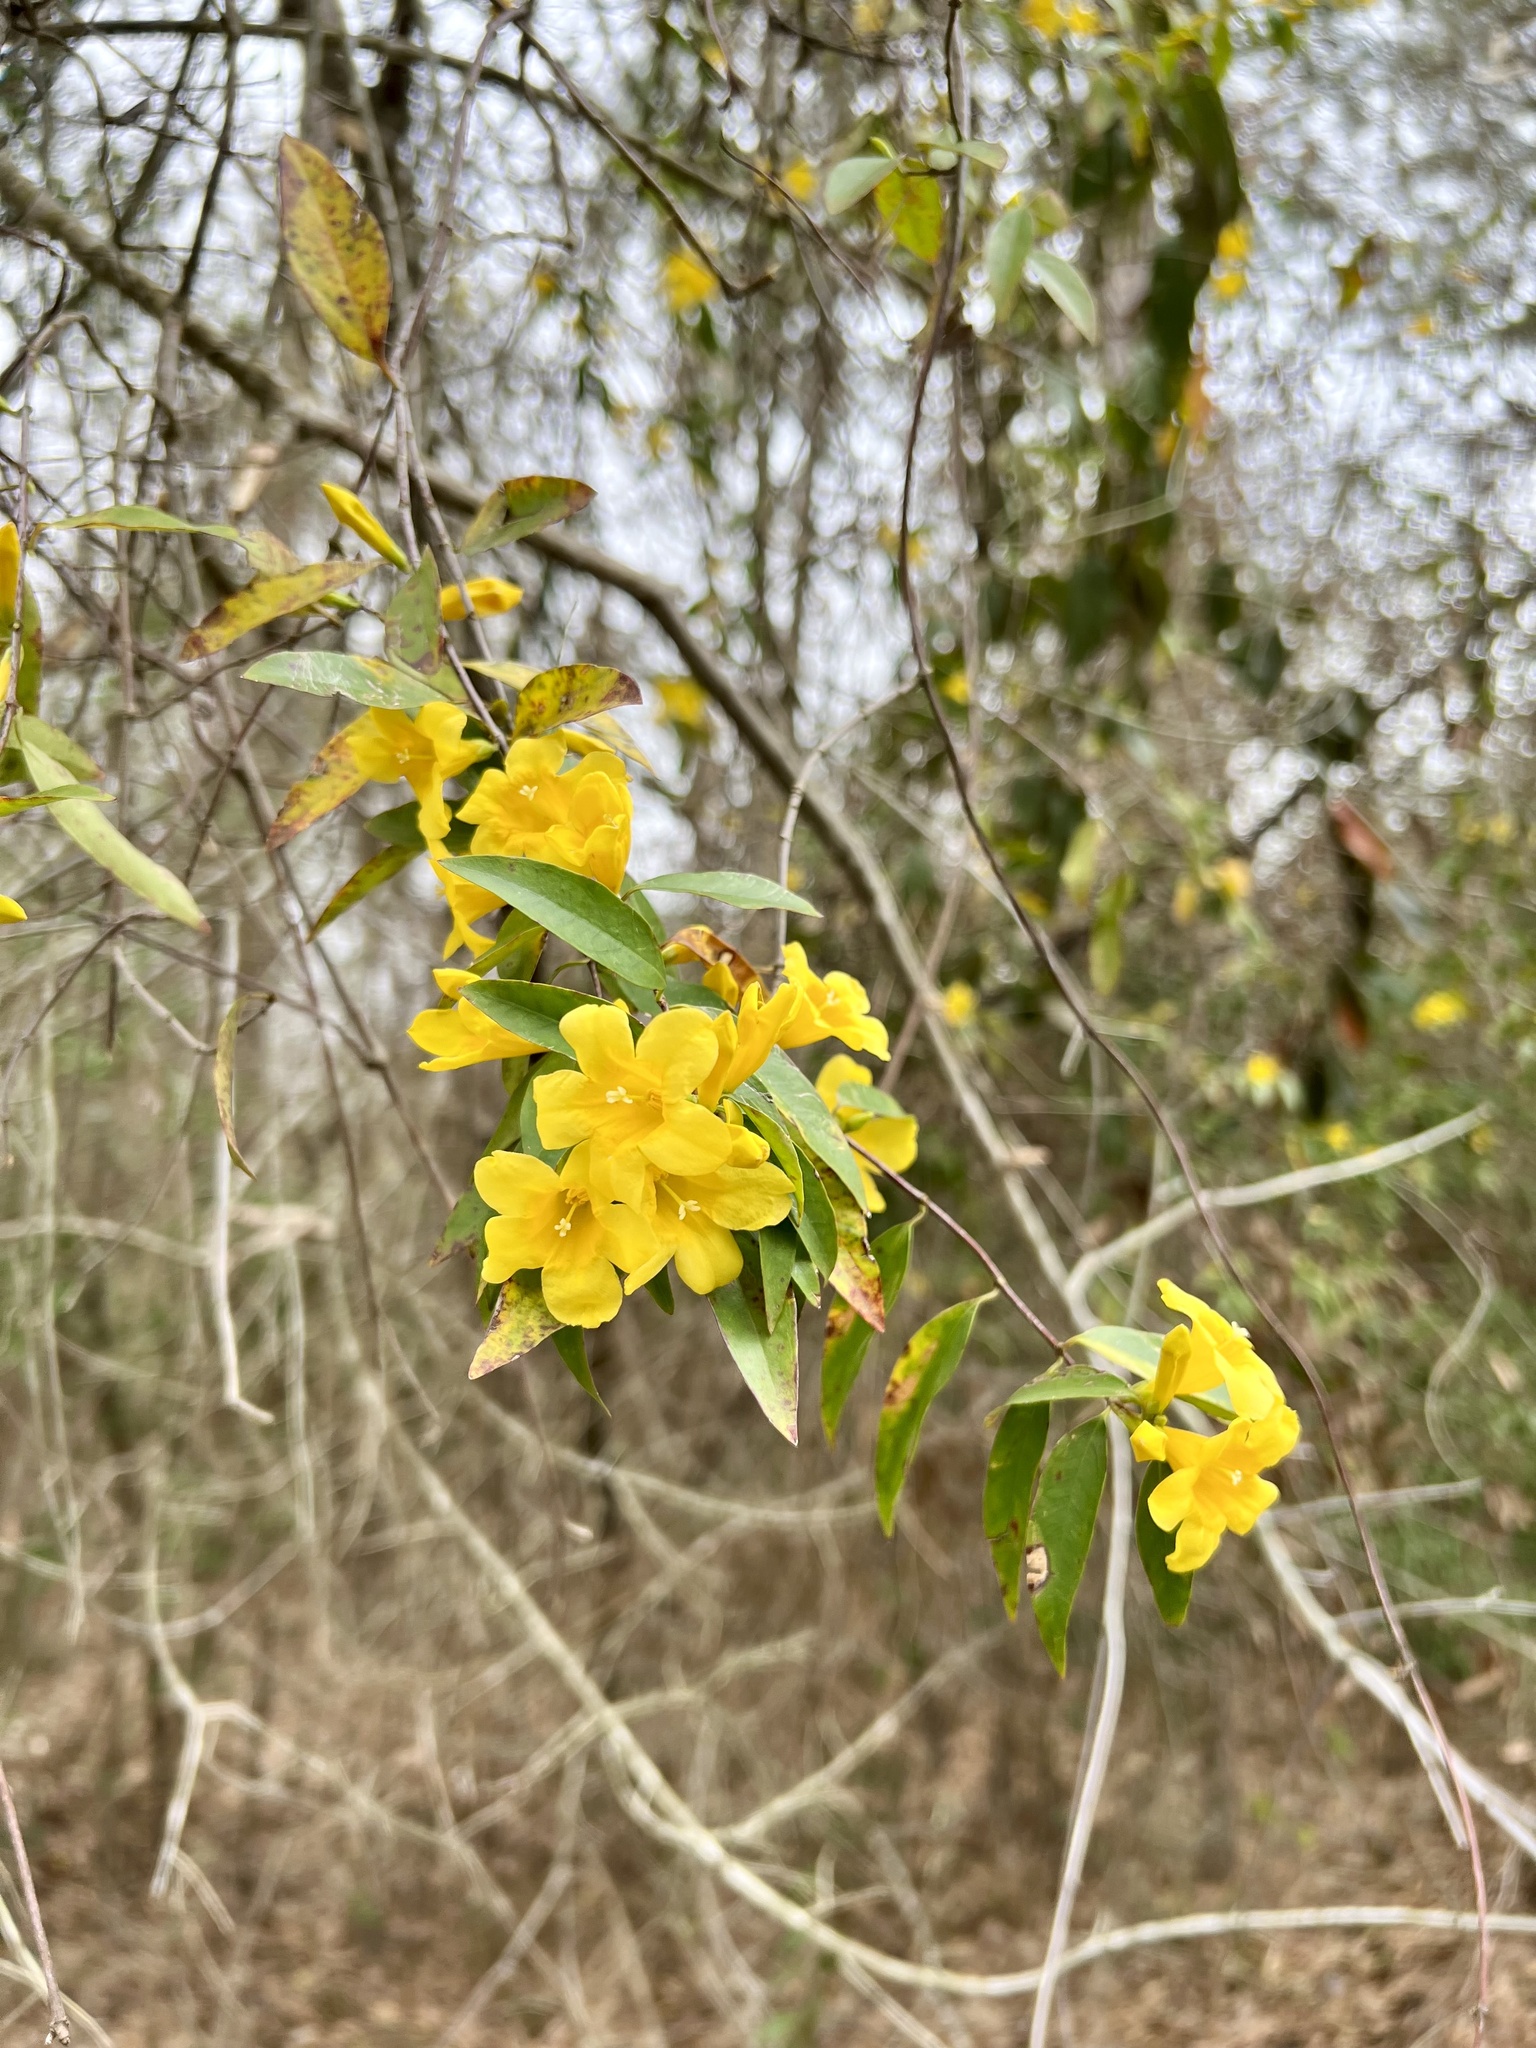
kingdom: Plantae
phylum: Tracheophyta
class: Magnoliopsida
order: Gentianales
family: Gelsemiaceae
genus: Gelsemium
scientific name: Gelsemium sempervirens
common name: Carolina-jasmine
